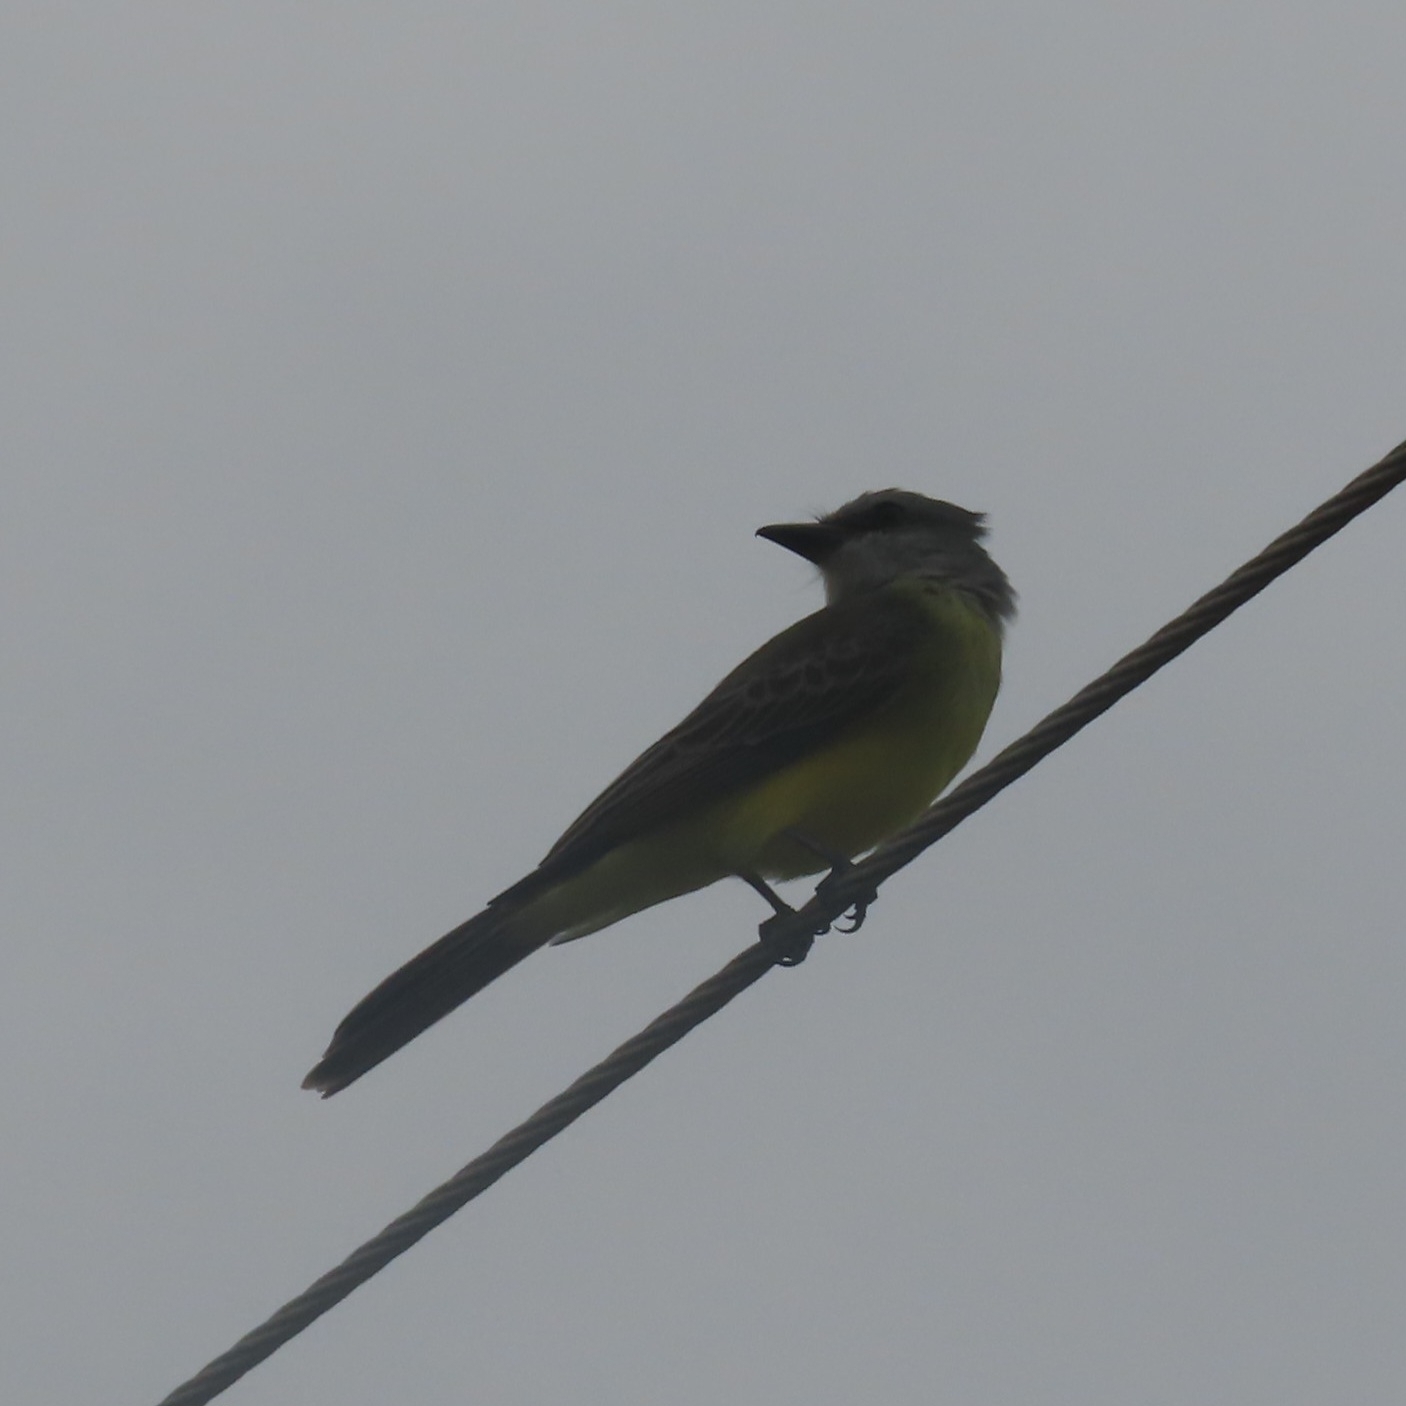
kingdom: Animalia
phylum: Chordata
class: Aves
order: Passeriformes
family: Tyrannidae
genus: Tyrannus
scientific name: Tyrannus melancholicus
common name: Tropical kingbird
